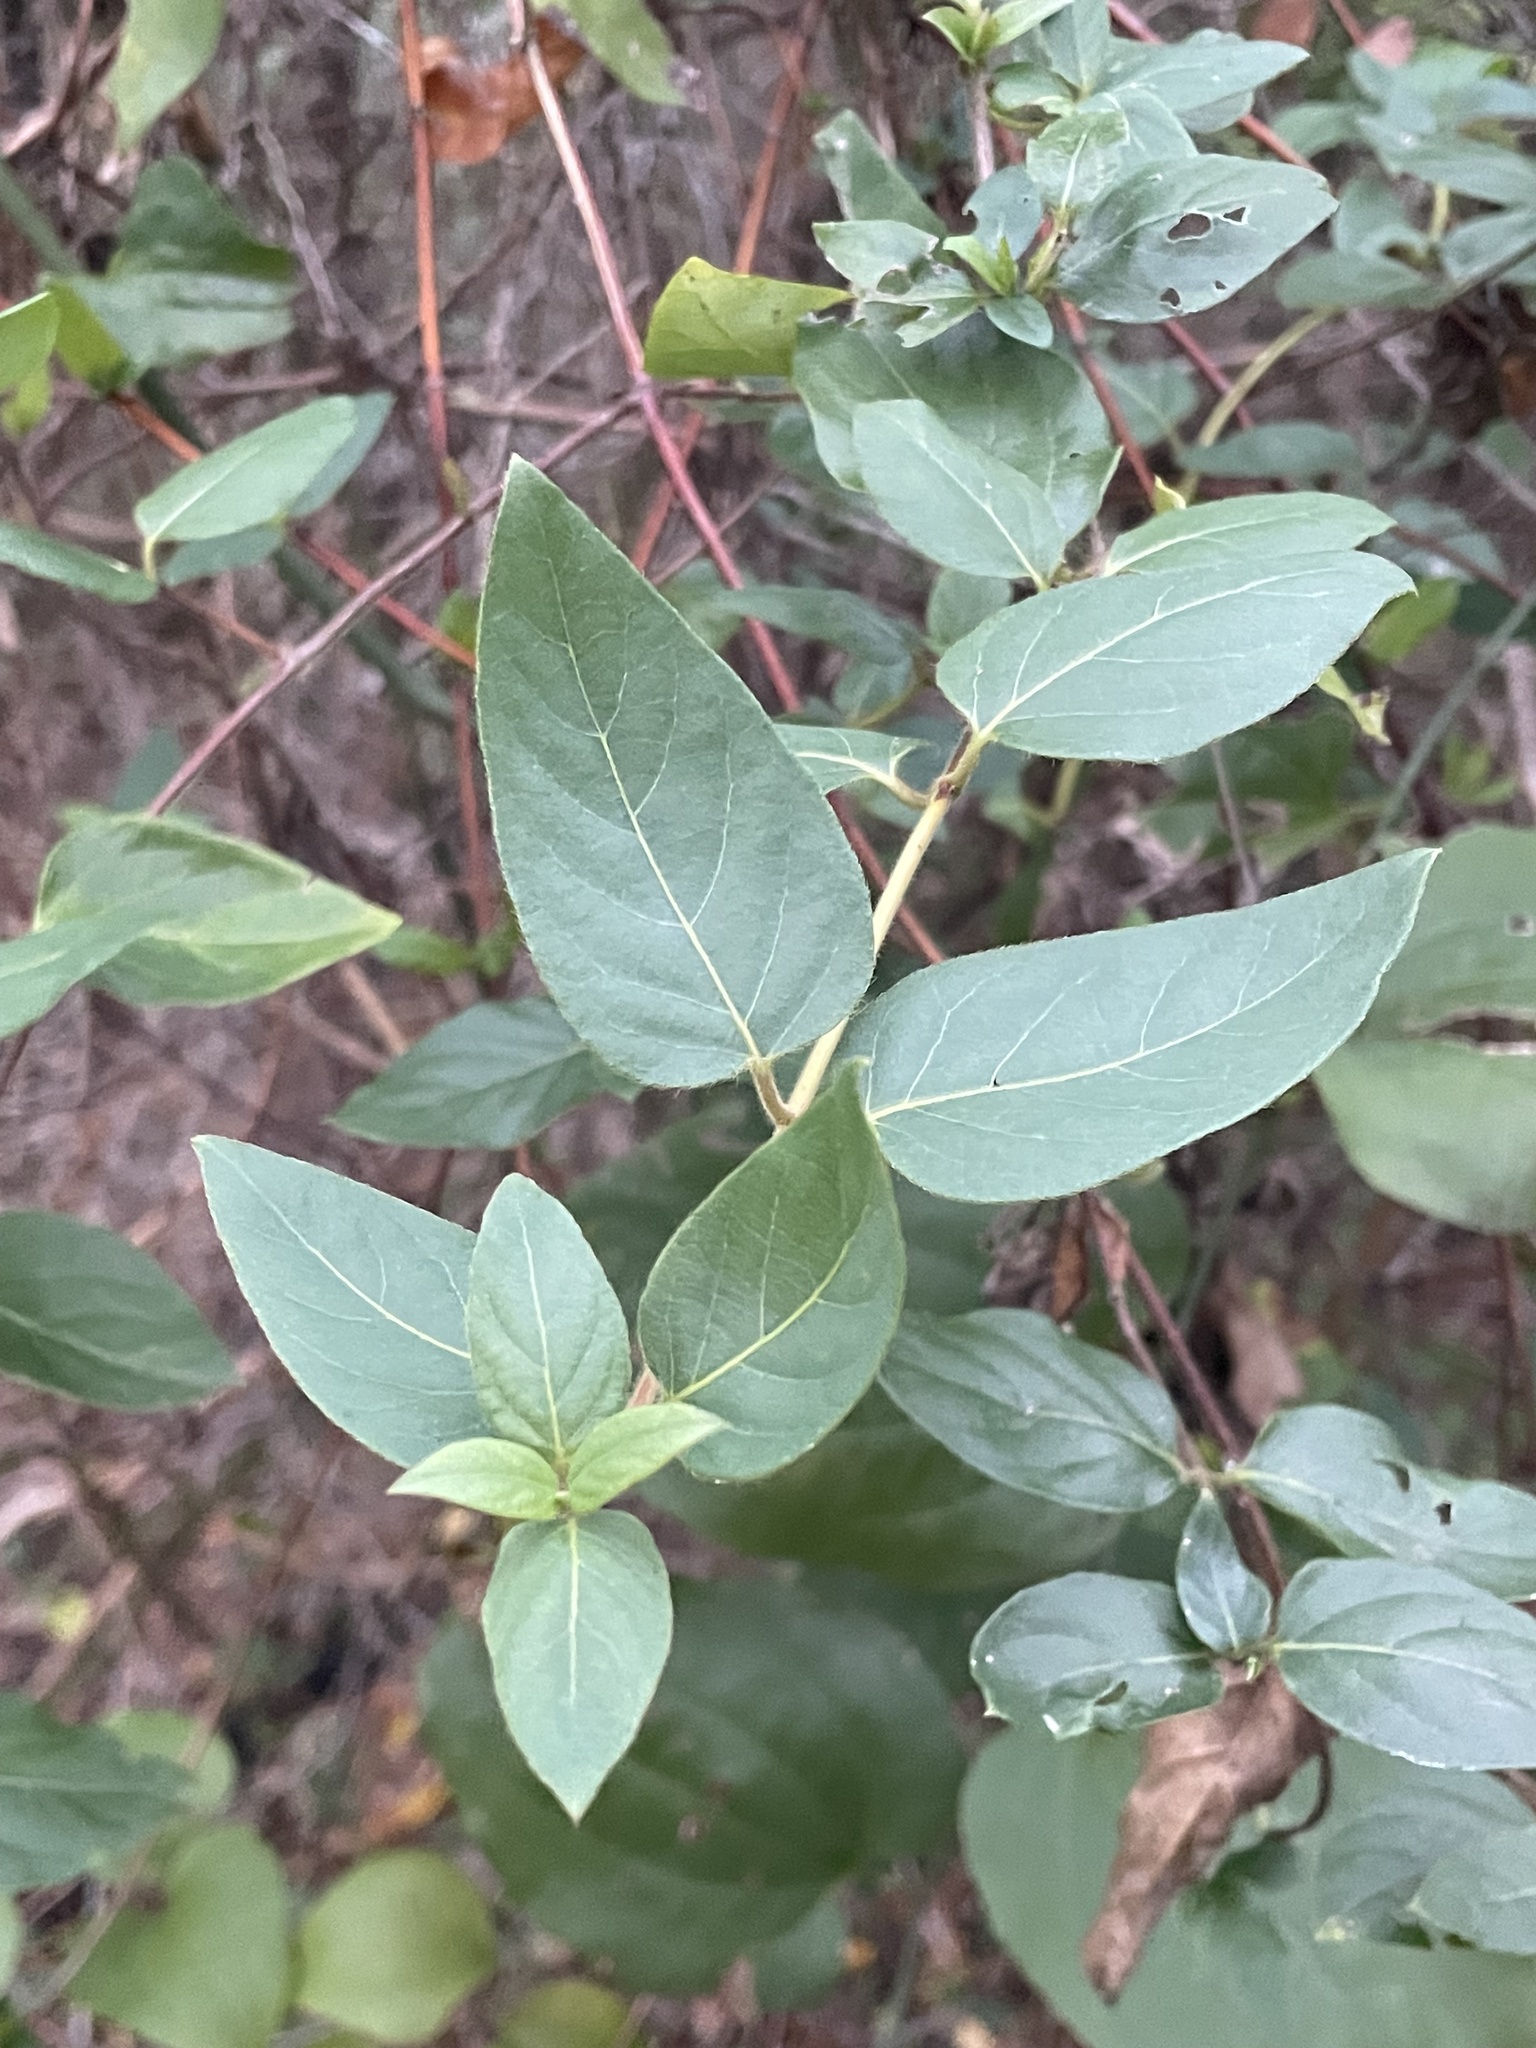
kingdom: Plantae
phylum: Tracheophyta
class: Magnoliopsida
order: Dipsacales
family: Caprifoliaceae
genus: Lonicera
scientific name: Lonicera japonica
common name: Japanese honeysuckle
